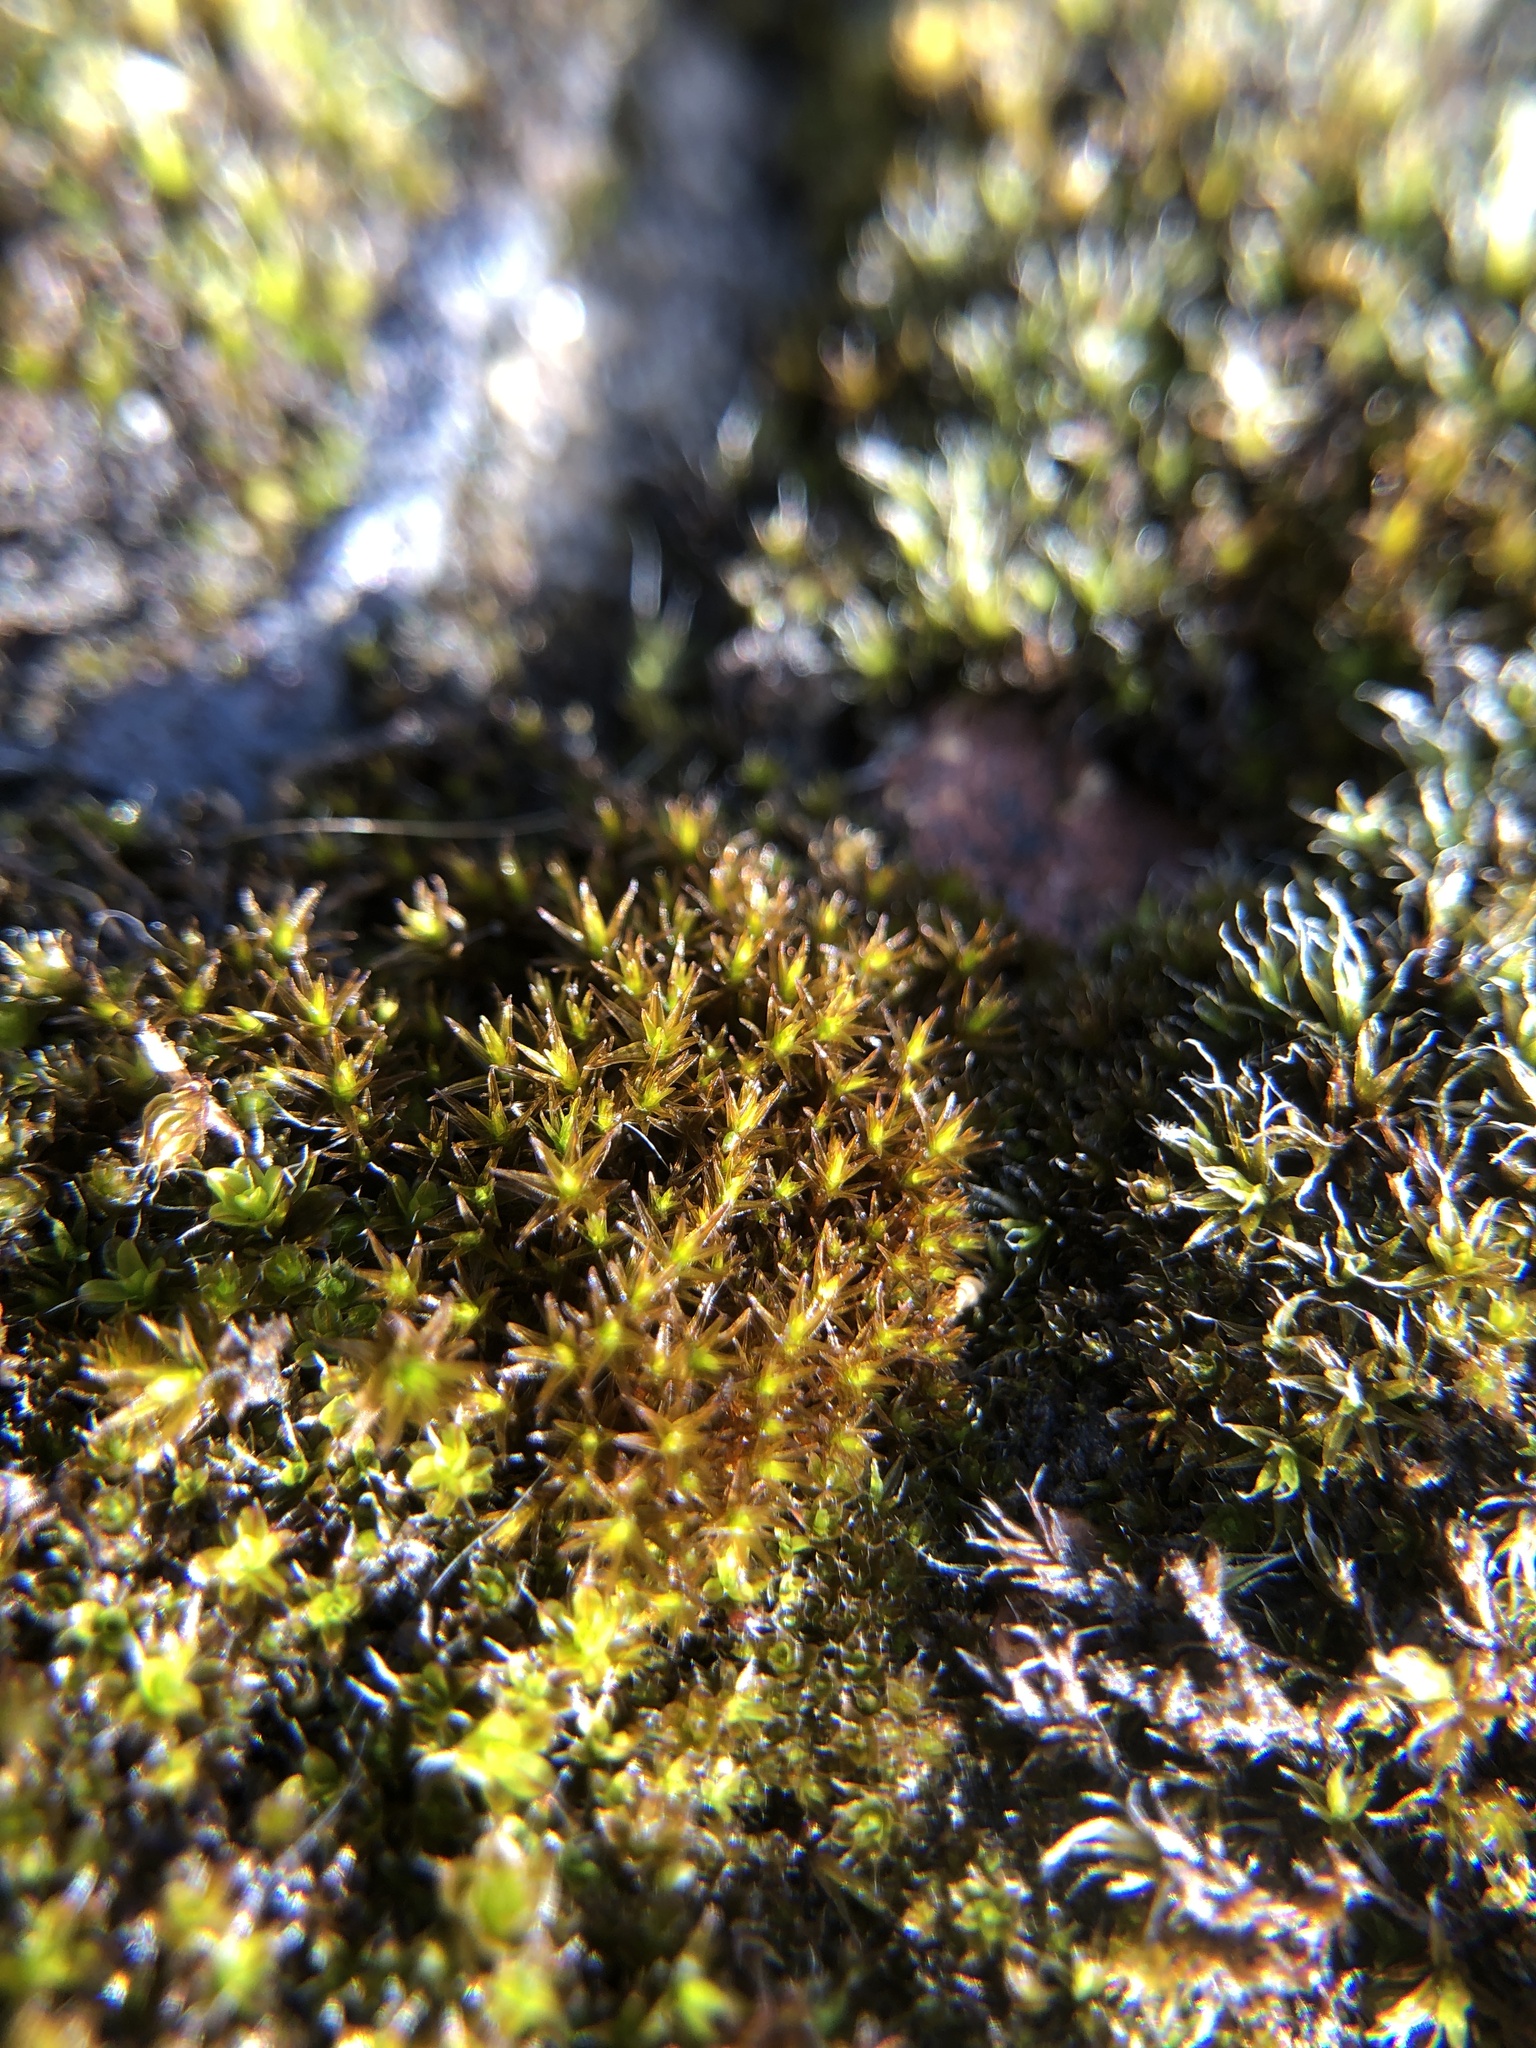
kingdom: Plantae
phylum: Bryophyta
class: Bryopsida
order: Pottiales
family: Pottiaceae
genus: Didymodon
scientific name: Didymodon rigidulus
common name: Rigid beard-moss
